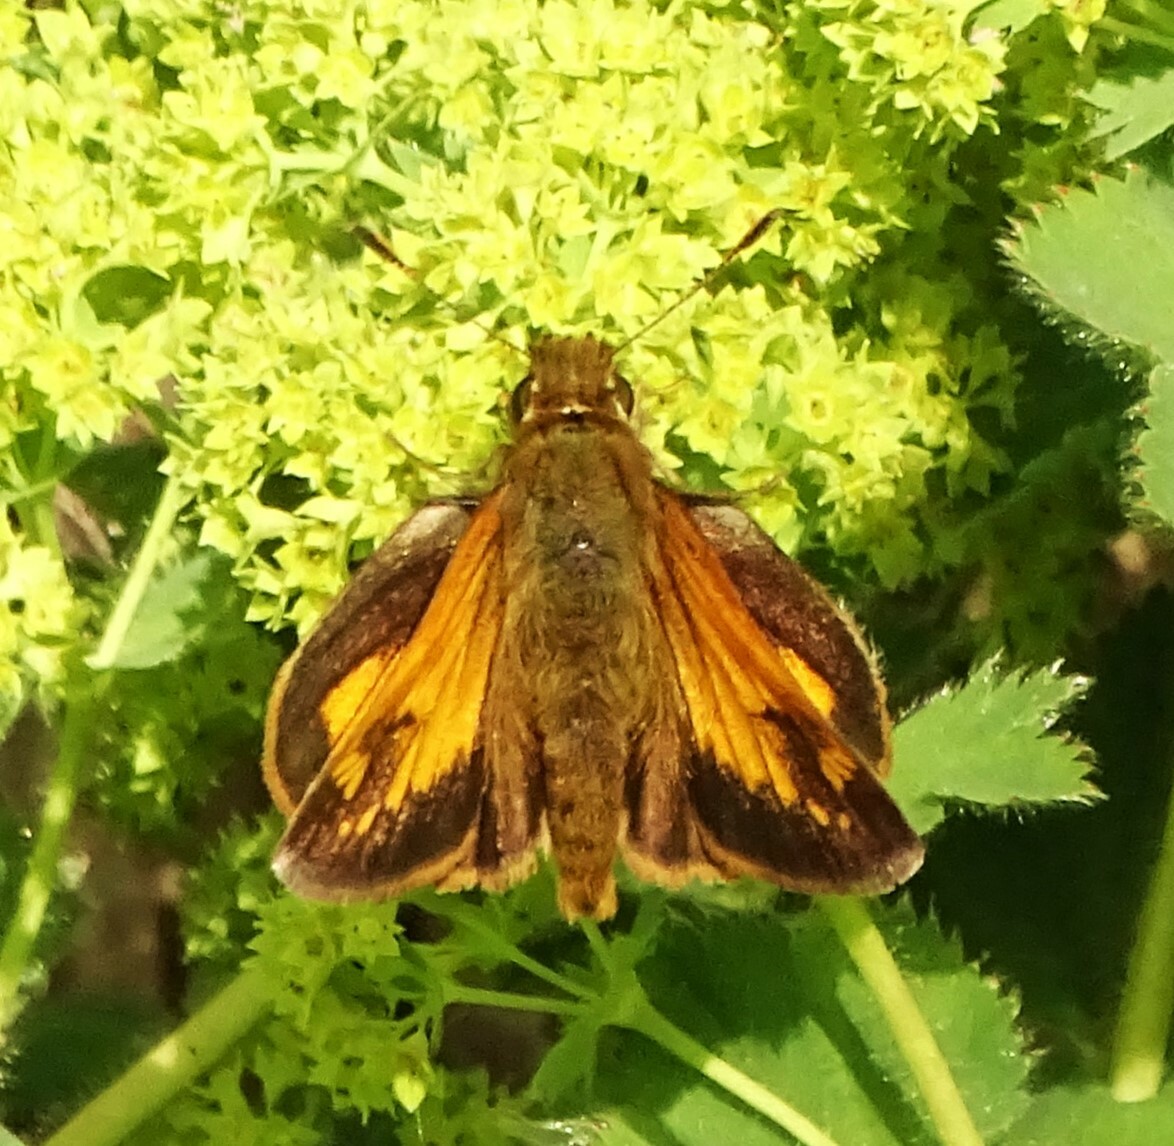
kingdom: Animalia
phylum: Arthropoda
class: Insecta
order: Lepidoptera
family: Hesperiidae
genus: Lon
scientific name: Lon hobomok
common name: Hobomok skipper
